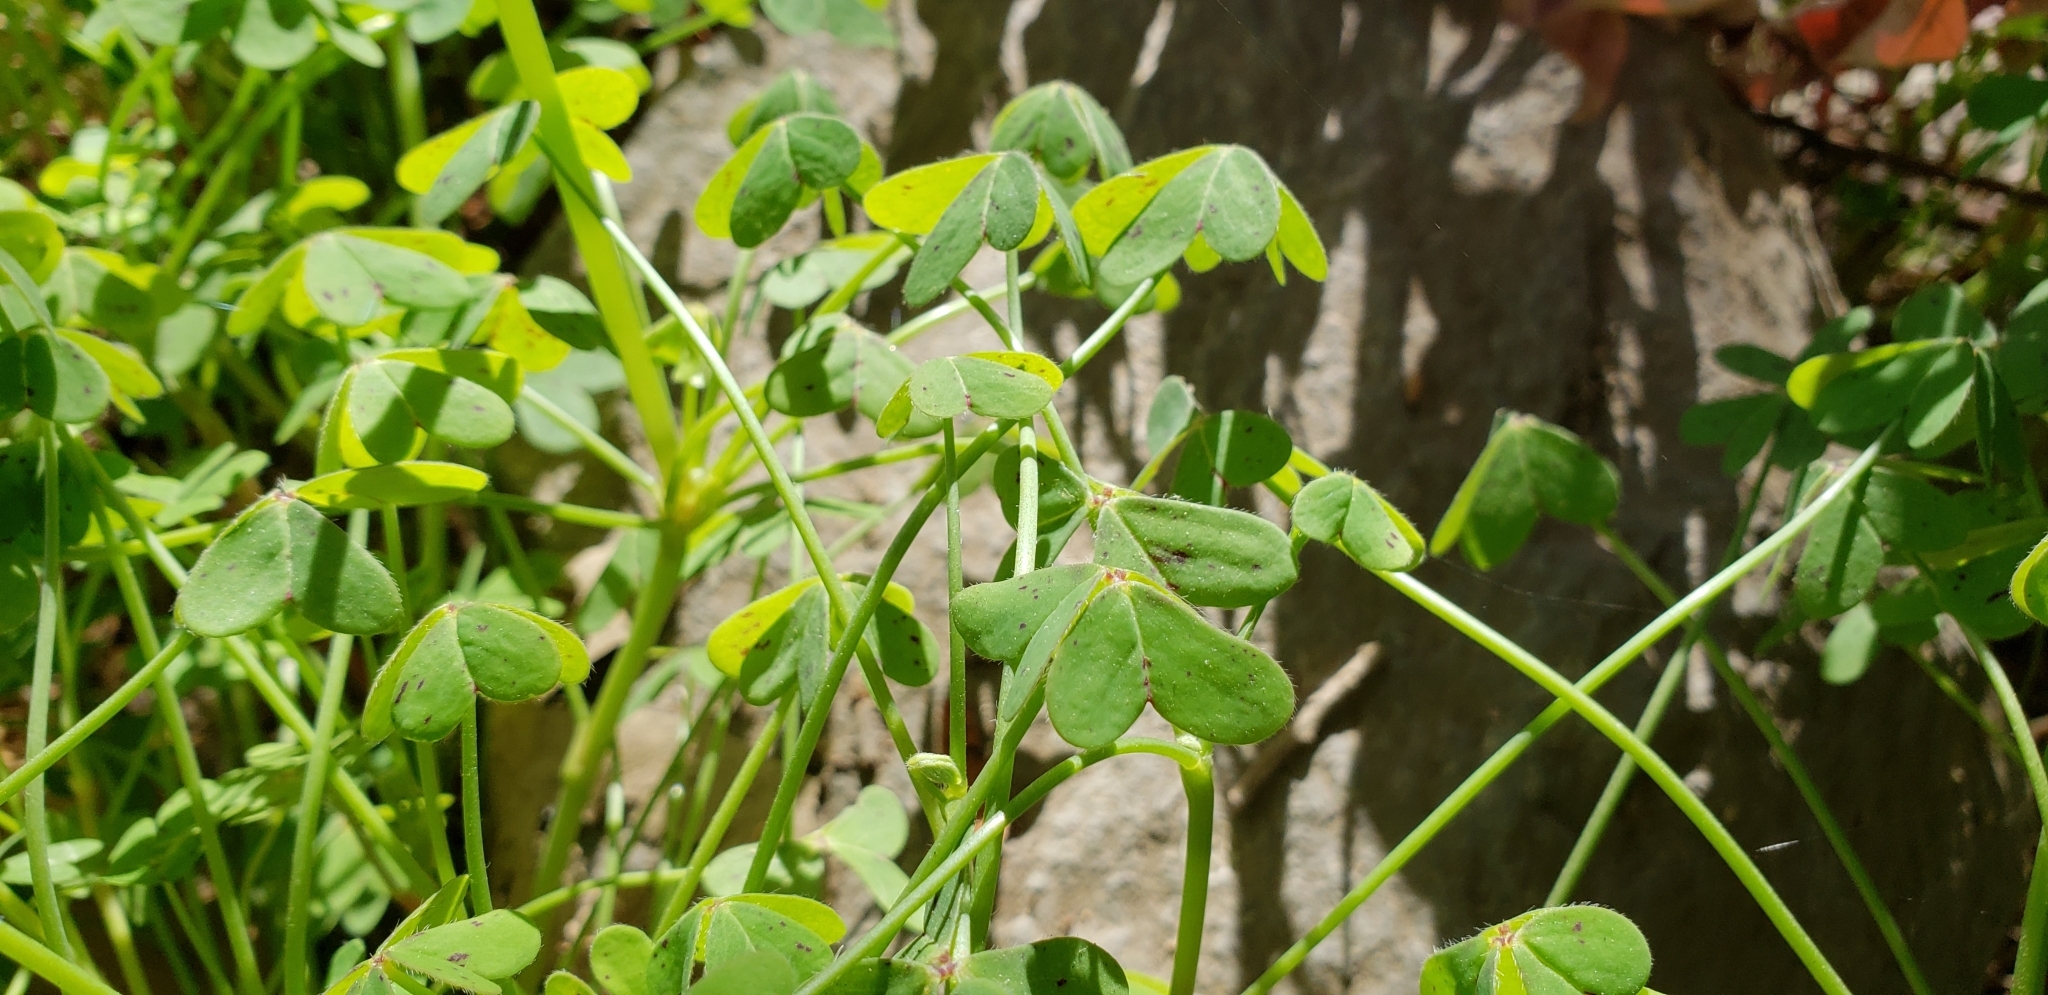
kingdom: Plantae
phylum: Tracheophyta
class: Magnoliopsida
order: Oxalidales
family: Oxalidaceae
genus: Oxalis
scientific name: Oxalis pes-caprae
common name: Bermuda-buttercup
